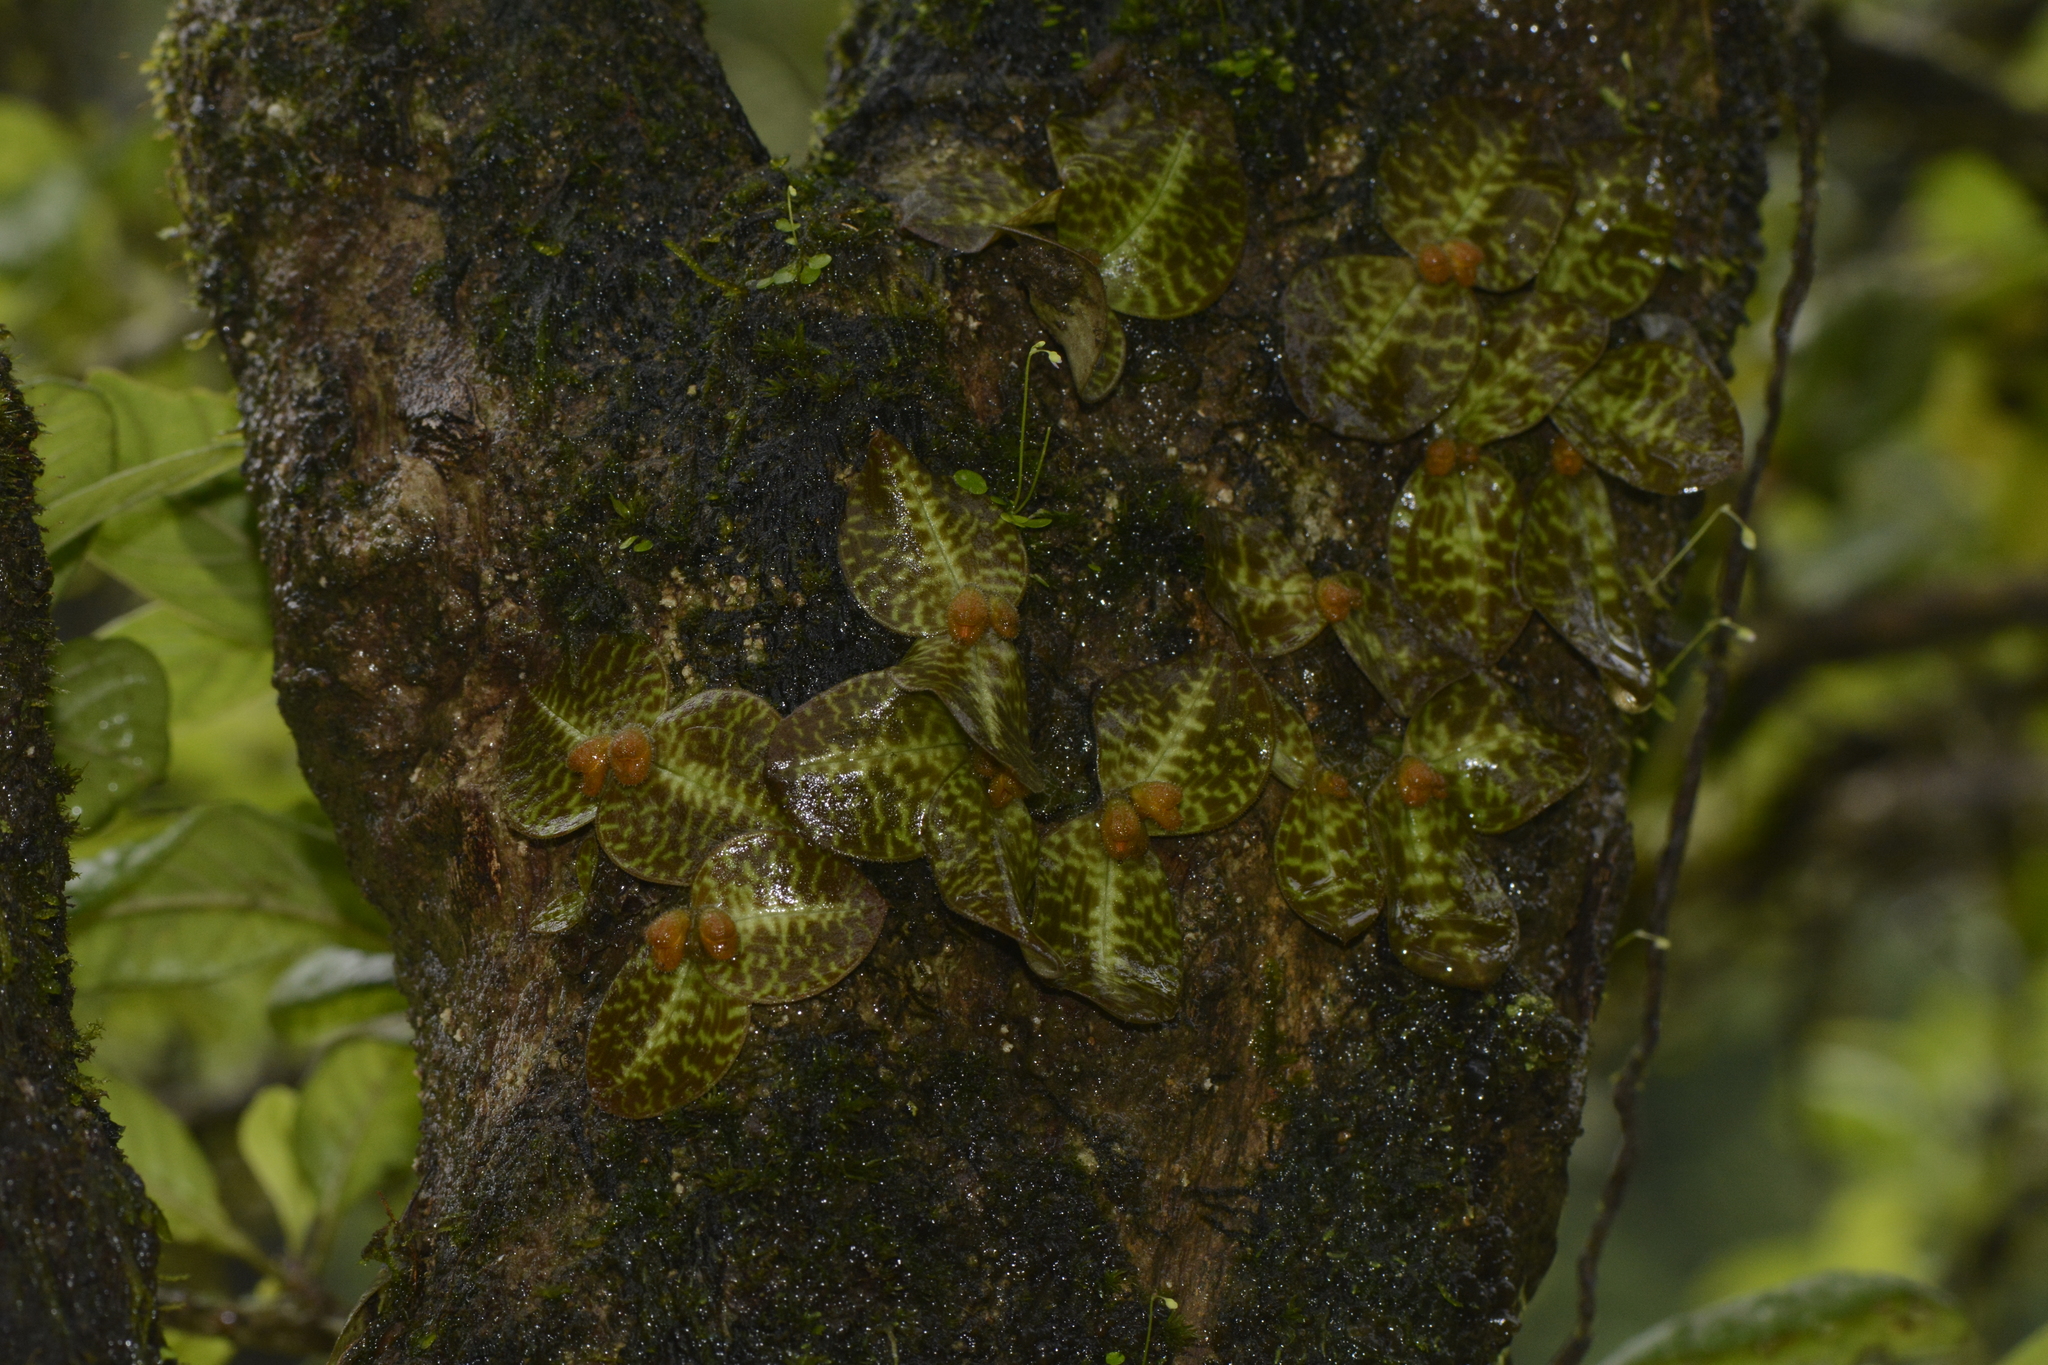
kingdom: Plantae
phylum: Tracheophyta
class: Liliopsida
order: Asparagales
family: Orchidaceae
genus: Porpax
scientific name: Porpax jerdoniana
